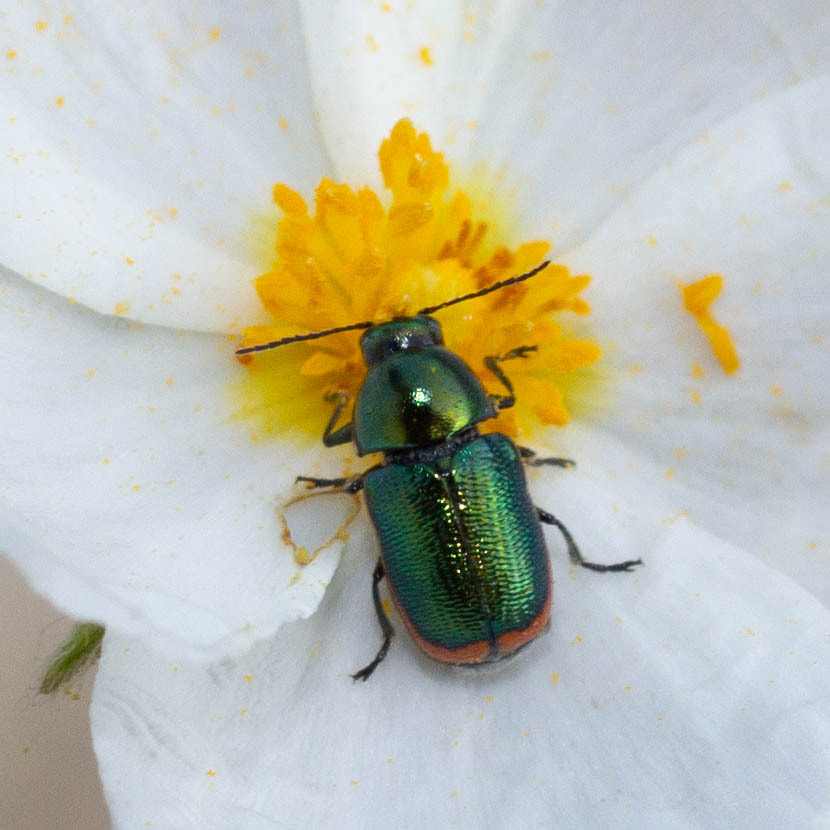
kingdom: Animalia
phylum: Arthropoda
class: Insecta
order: Coleoptera
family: Chrysomelidae
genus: Cryptocephalus
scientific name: Cryptocephalus ramburii
